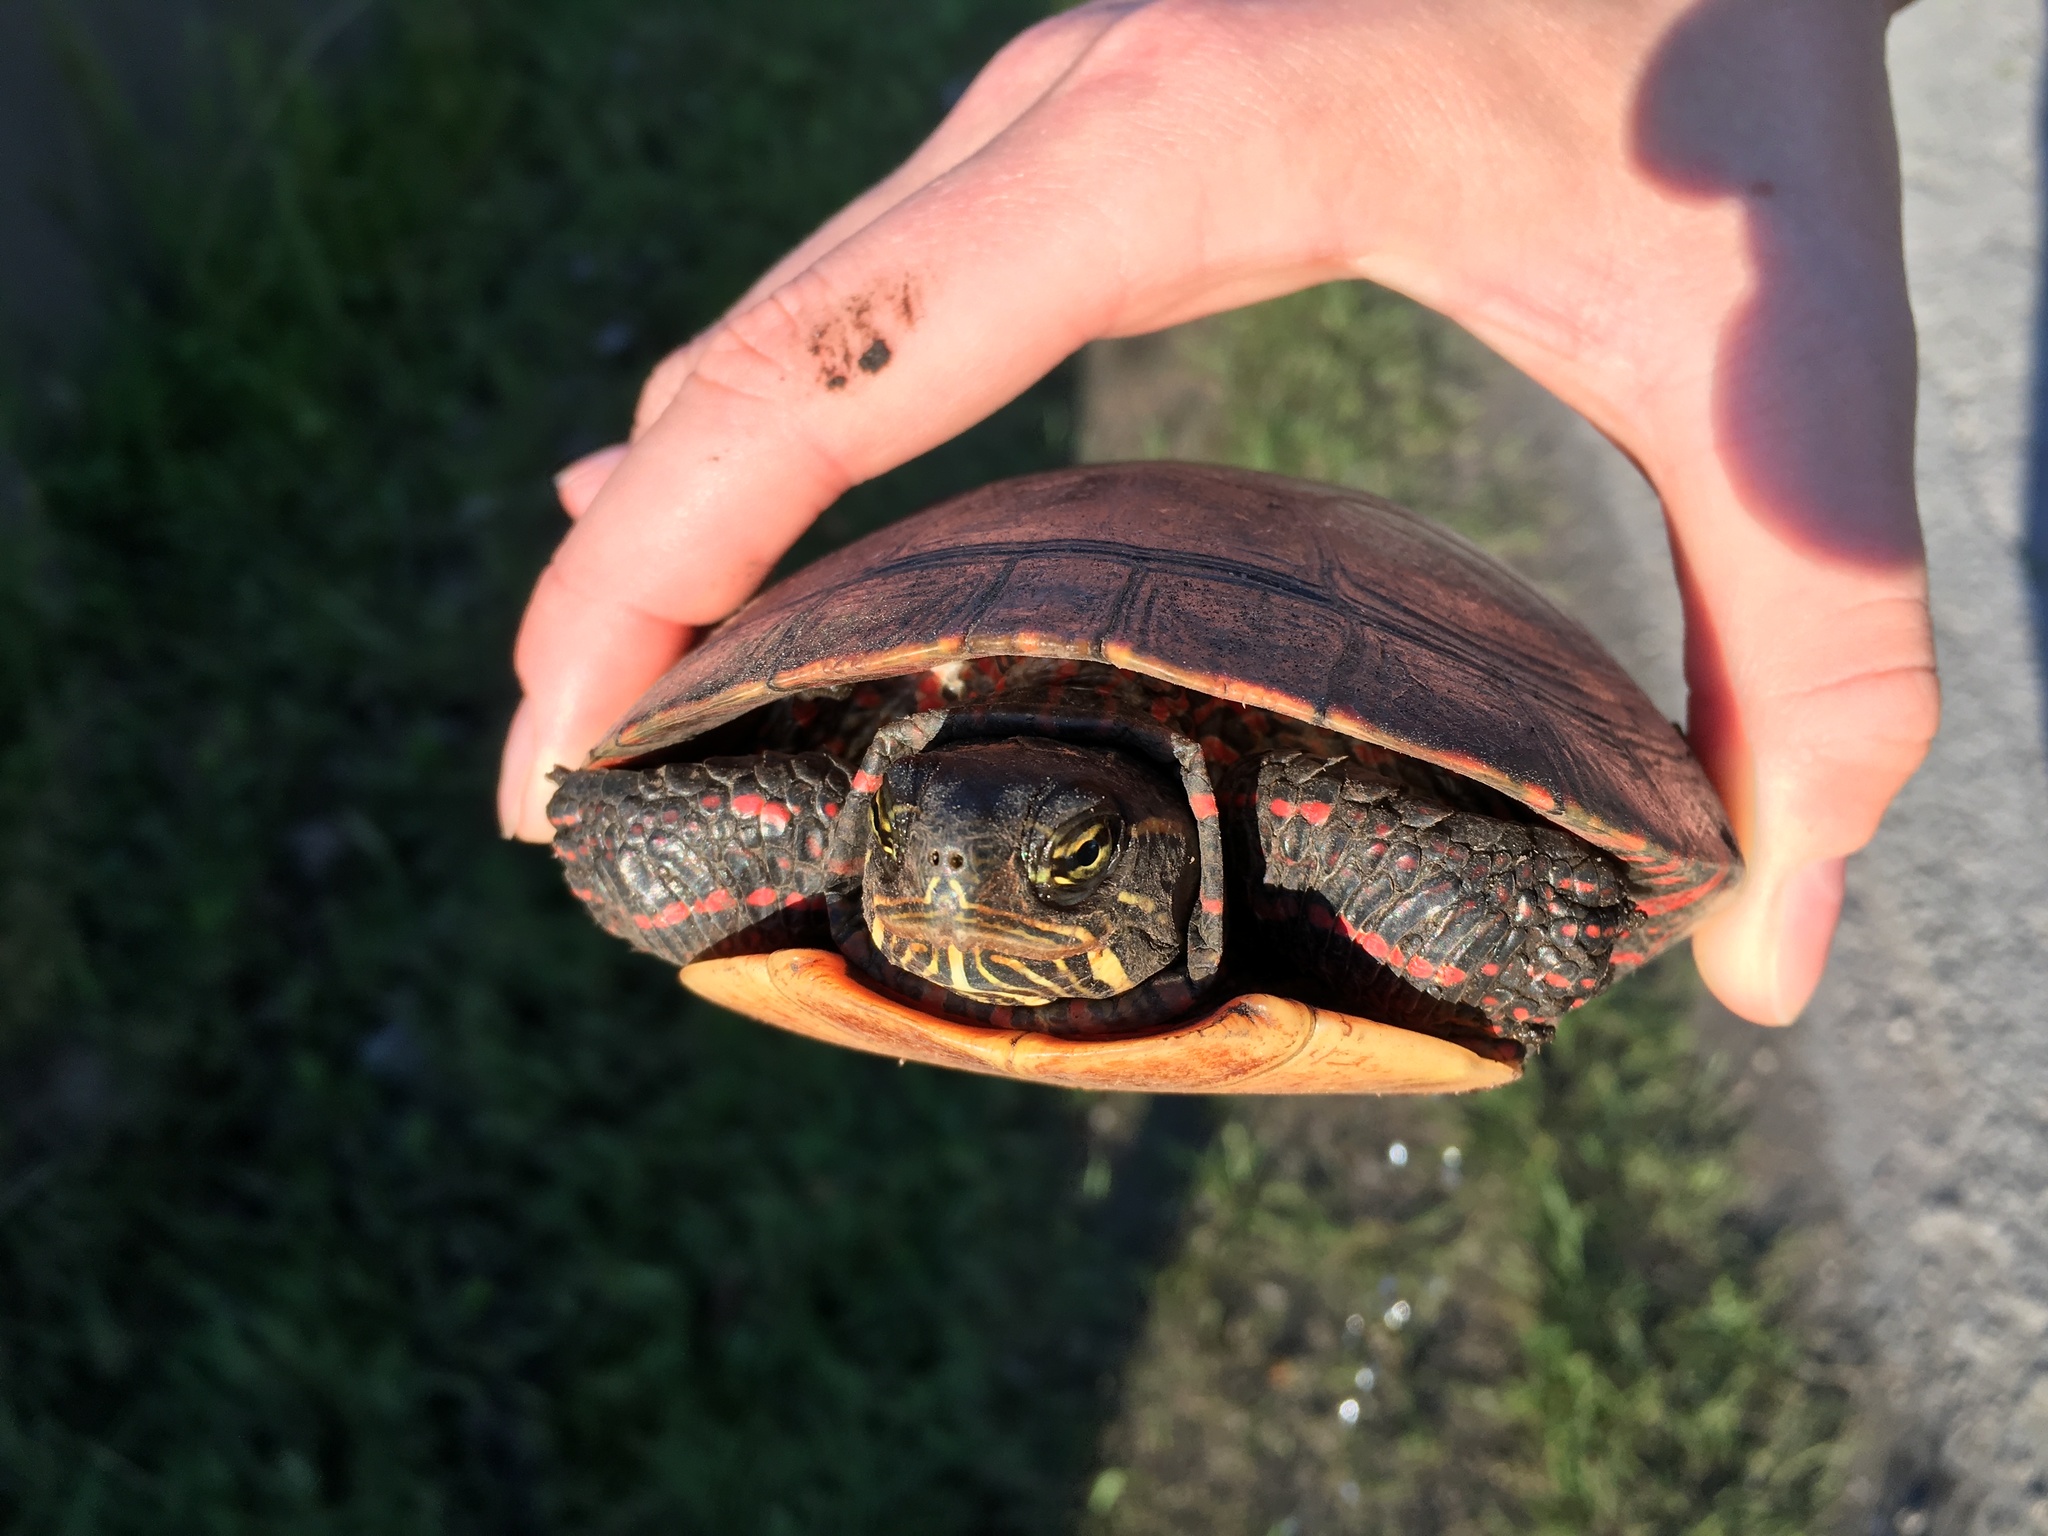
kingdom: Animalia
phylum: Chordata
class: Testudines
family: Emydidae
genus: Chrysemys
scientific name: Chrysemys picta
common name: Painted turtle
